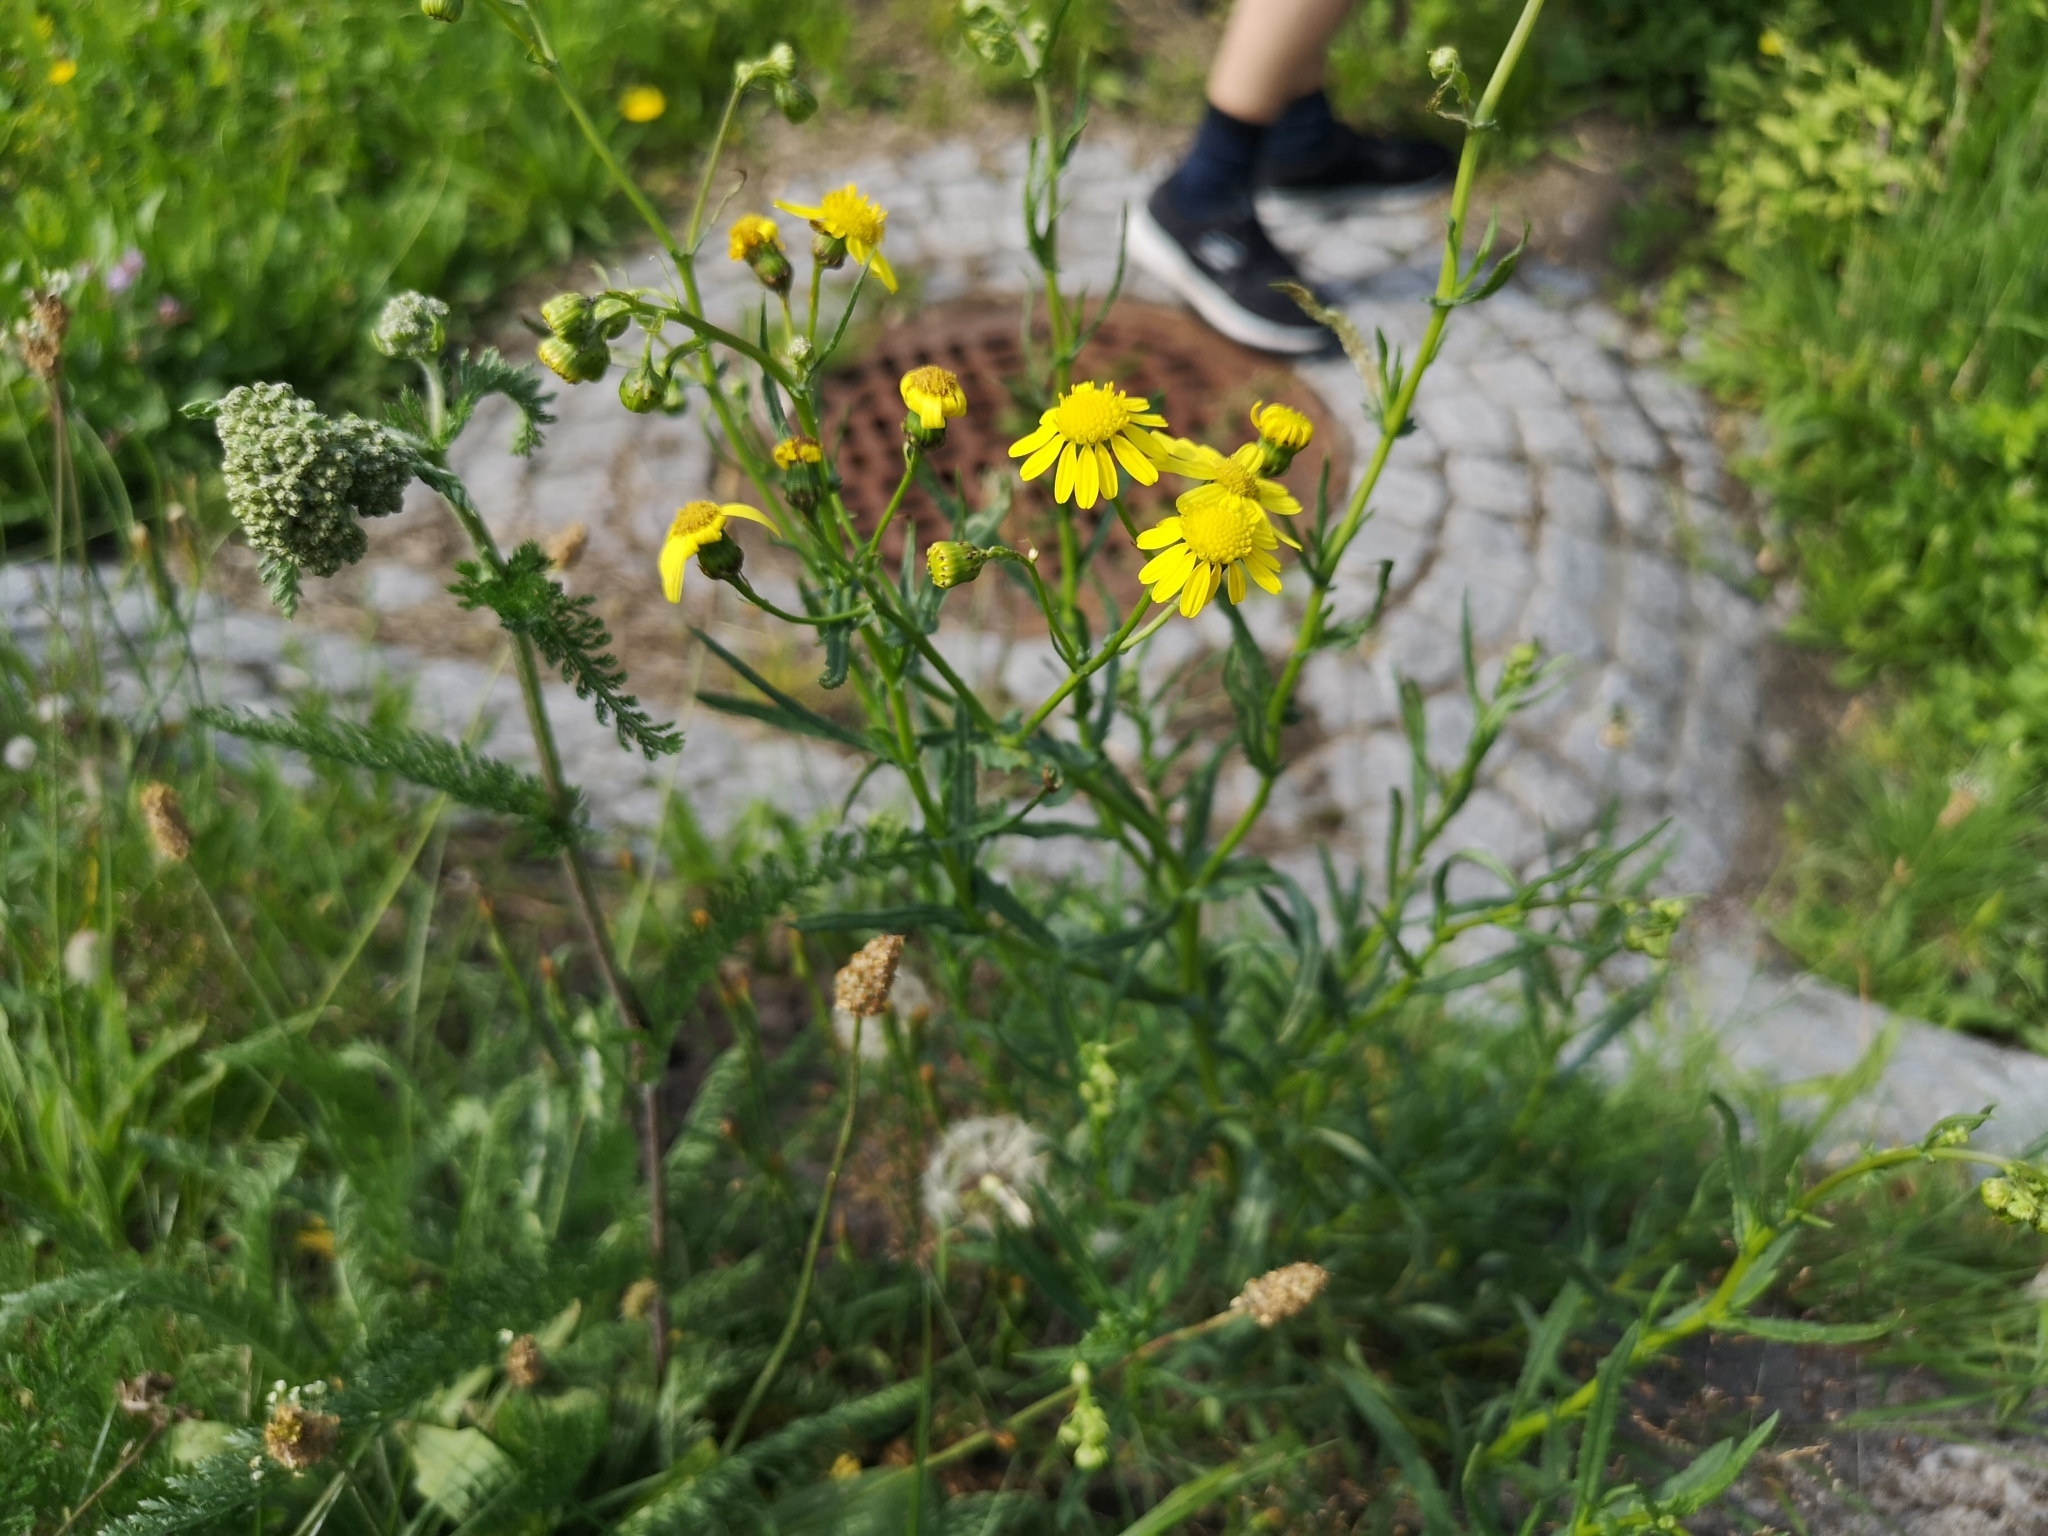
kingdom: Plantae
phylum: Tracheophyta
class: Magnoliopsida
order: Asterales
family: Asteraceae
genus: Senecio
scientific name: Senecio inaequidens
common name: Narrow-leaved ragwort
